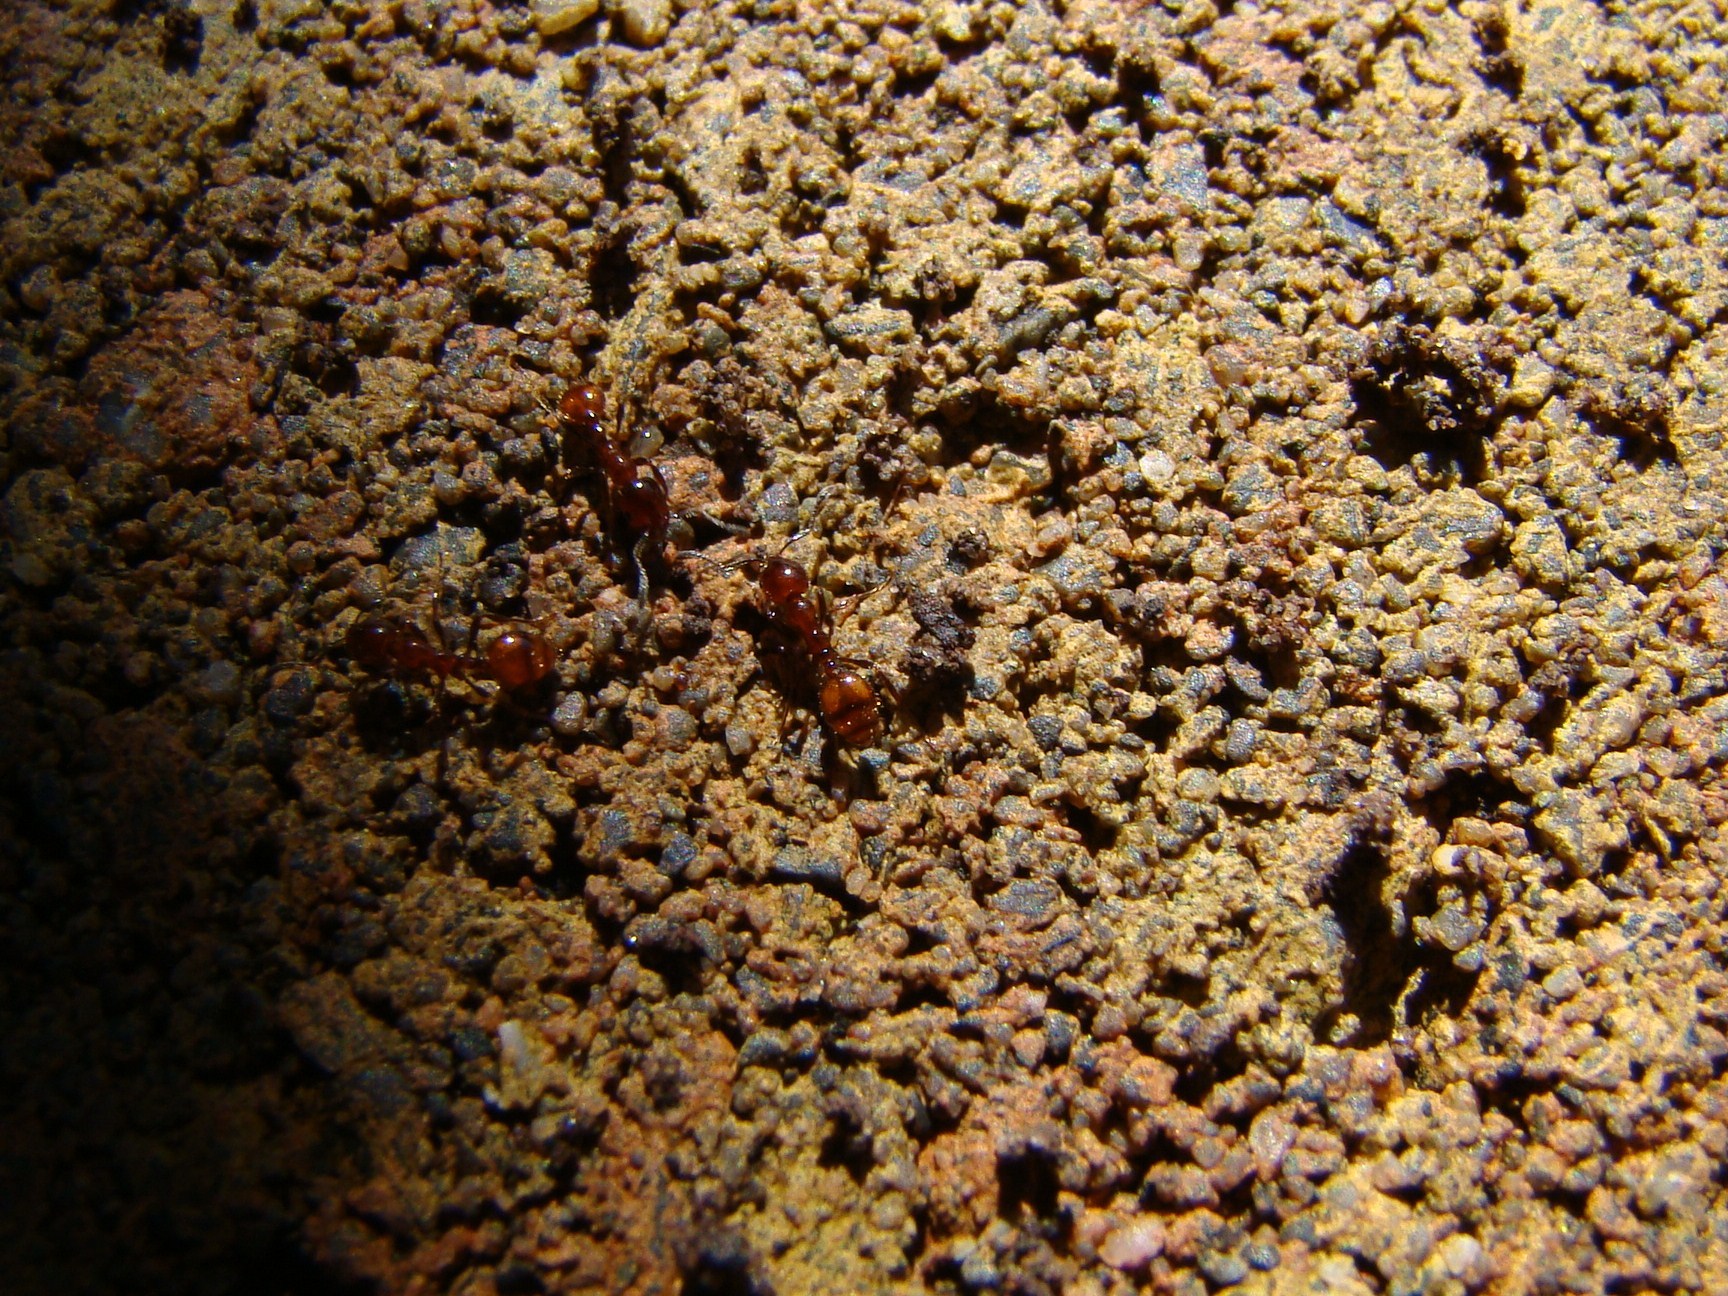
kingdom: Animalia
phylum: Arthropoda
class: Insecta
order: Hymenoptera
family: Formicidae
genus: Huberia
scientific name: Huberia striata
